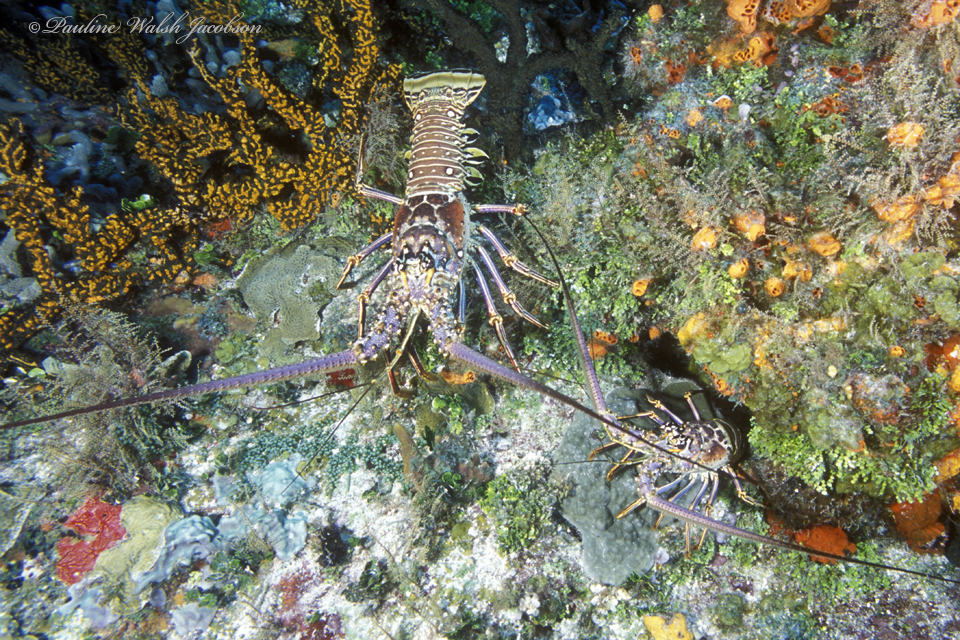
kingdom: Animalia
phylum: Arthropoda
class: Malacostraca
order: Decapoda
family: Palinuridae
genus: Panulirus
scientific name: Panulirus argus
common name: Caribbean spiny lobster
